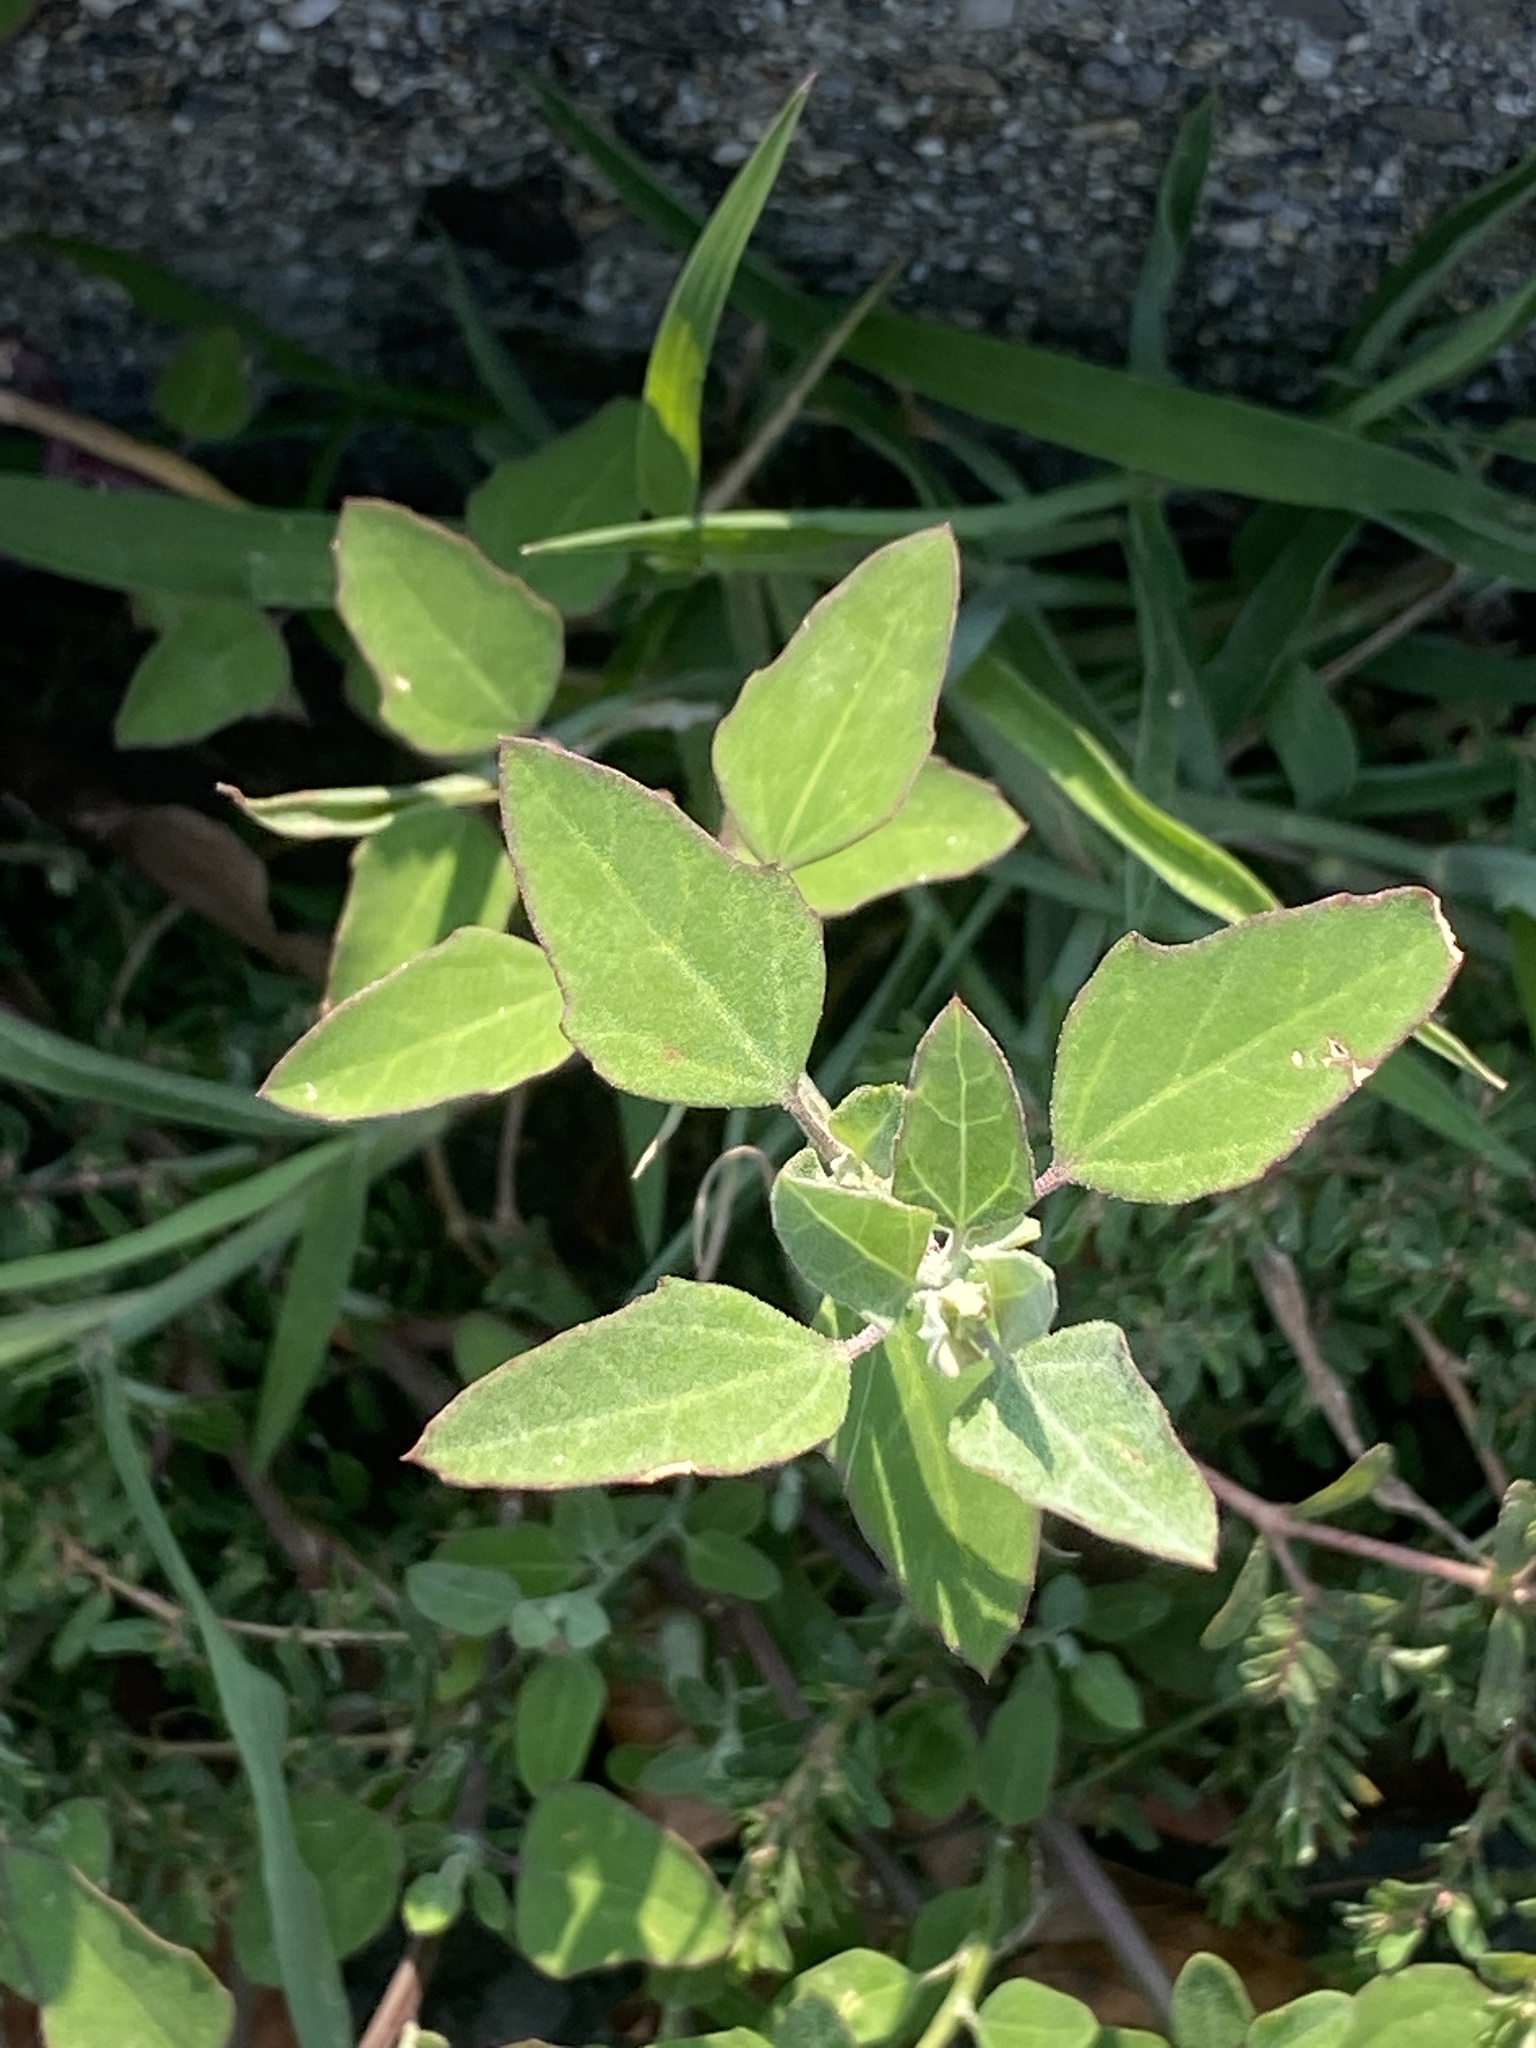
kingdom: Plantae
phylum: Tracheophyta
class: Magnoliopsida
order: Caryophyllales
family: Amaranthaceae
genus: Chenopodium
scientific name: Chenopodium album
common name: Fat-hen
